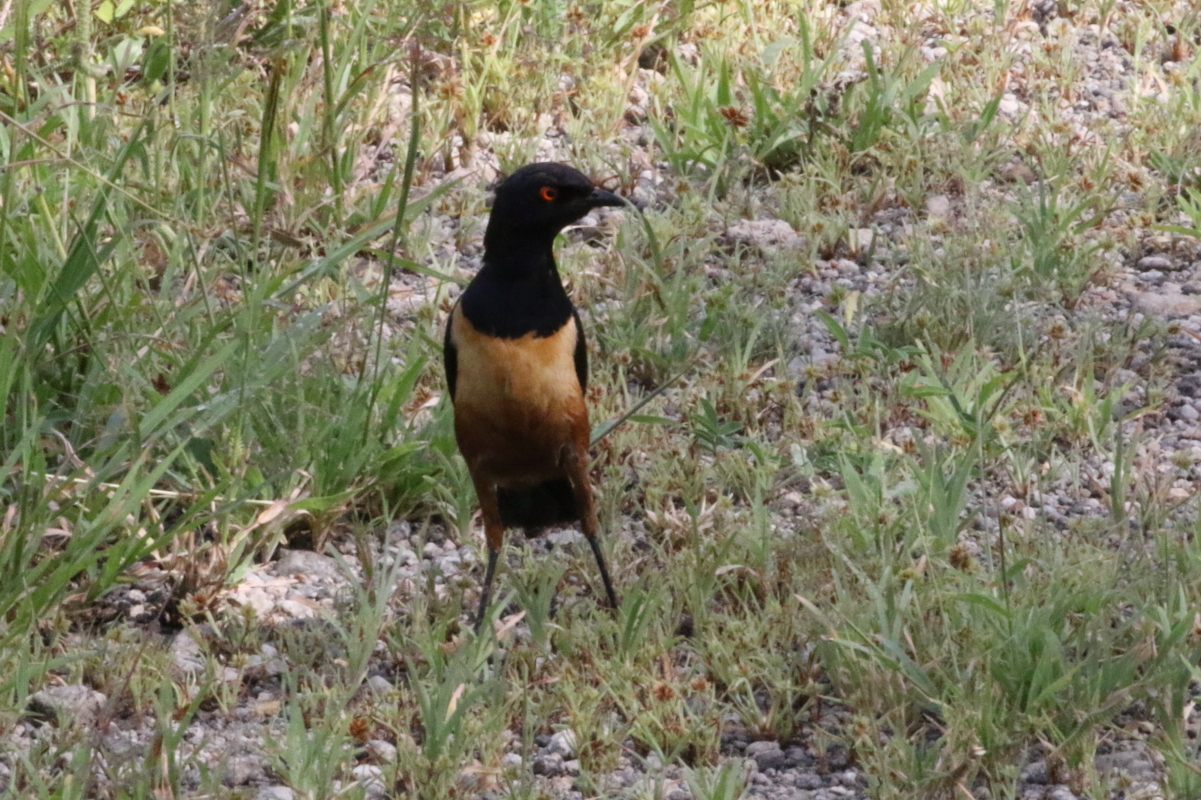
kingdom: Animalia
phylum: Chordata
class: Aves
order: Passeriformes
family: Sturnidae
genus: Lamprotornis
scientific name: Lamprotornis hildebrandti
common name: Hildebrandt's starling
